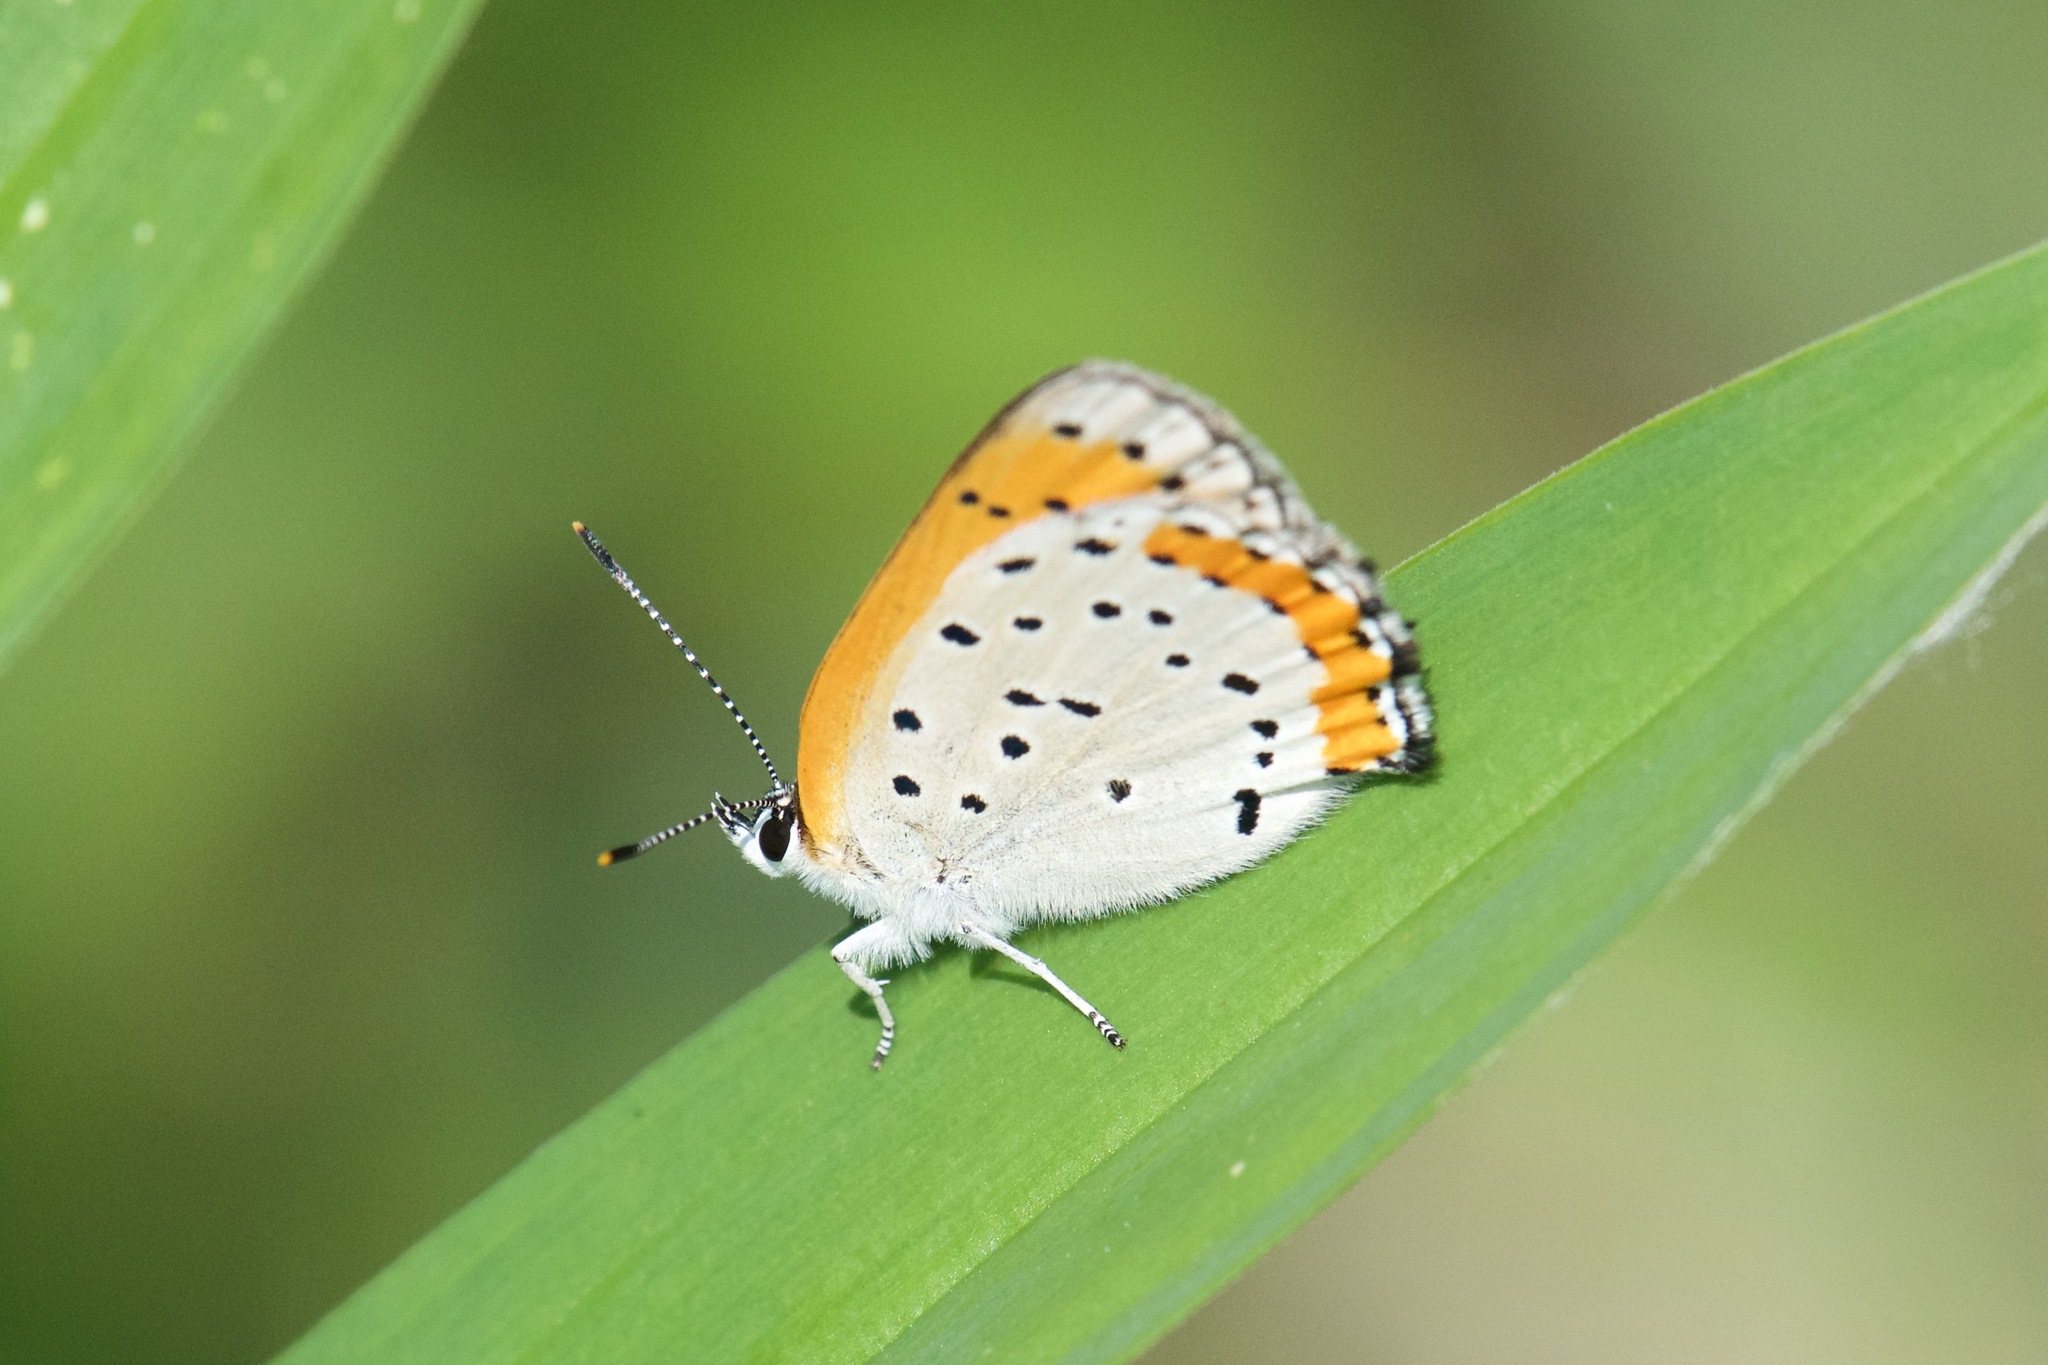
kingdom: Animalia
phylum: Arthropoda
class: Insecta
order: Lepidoptera
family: Lycaenidae
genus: Tharsalea
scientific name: Tharsalea hyllus
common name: Bronze copper
